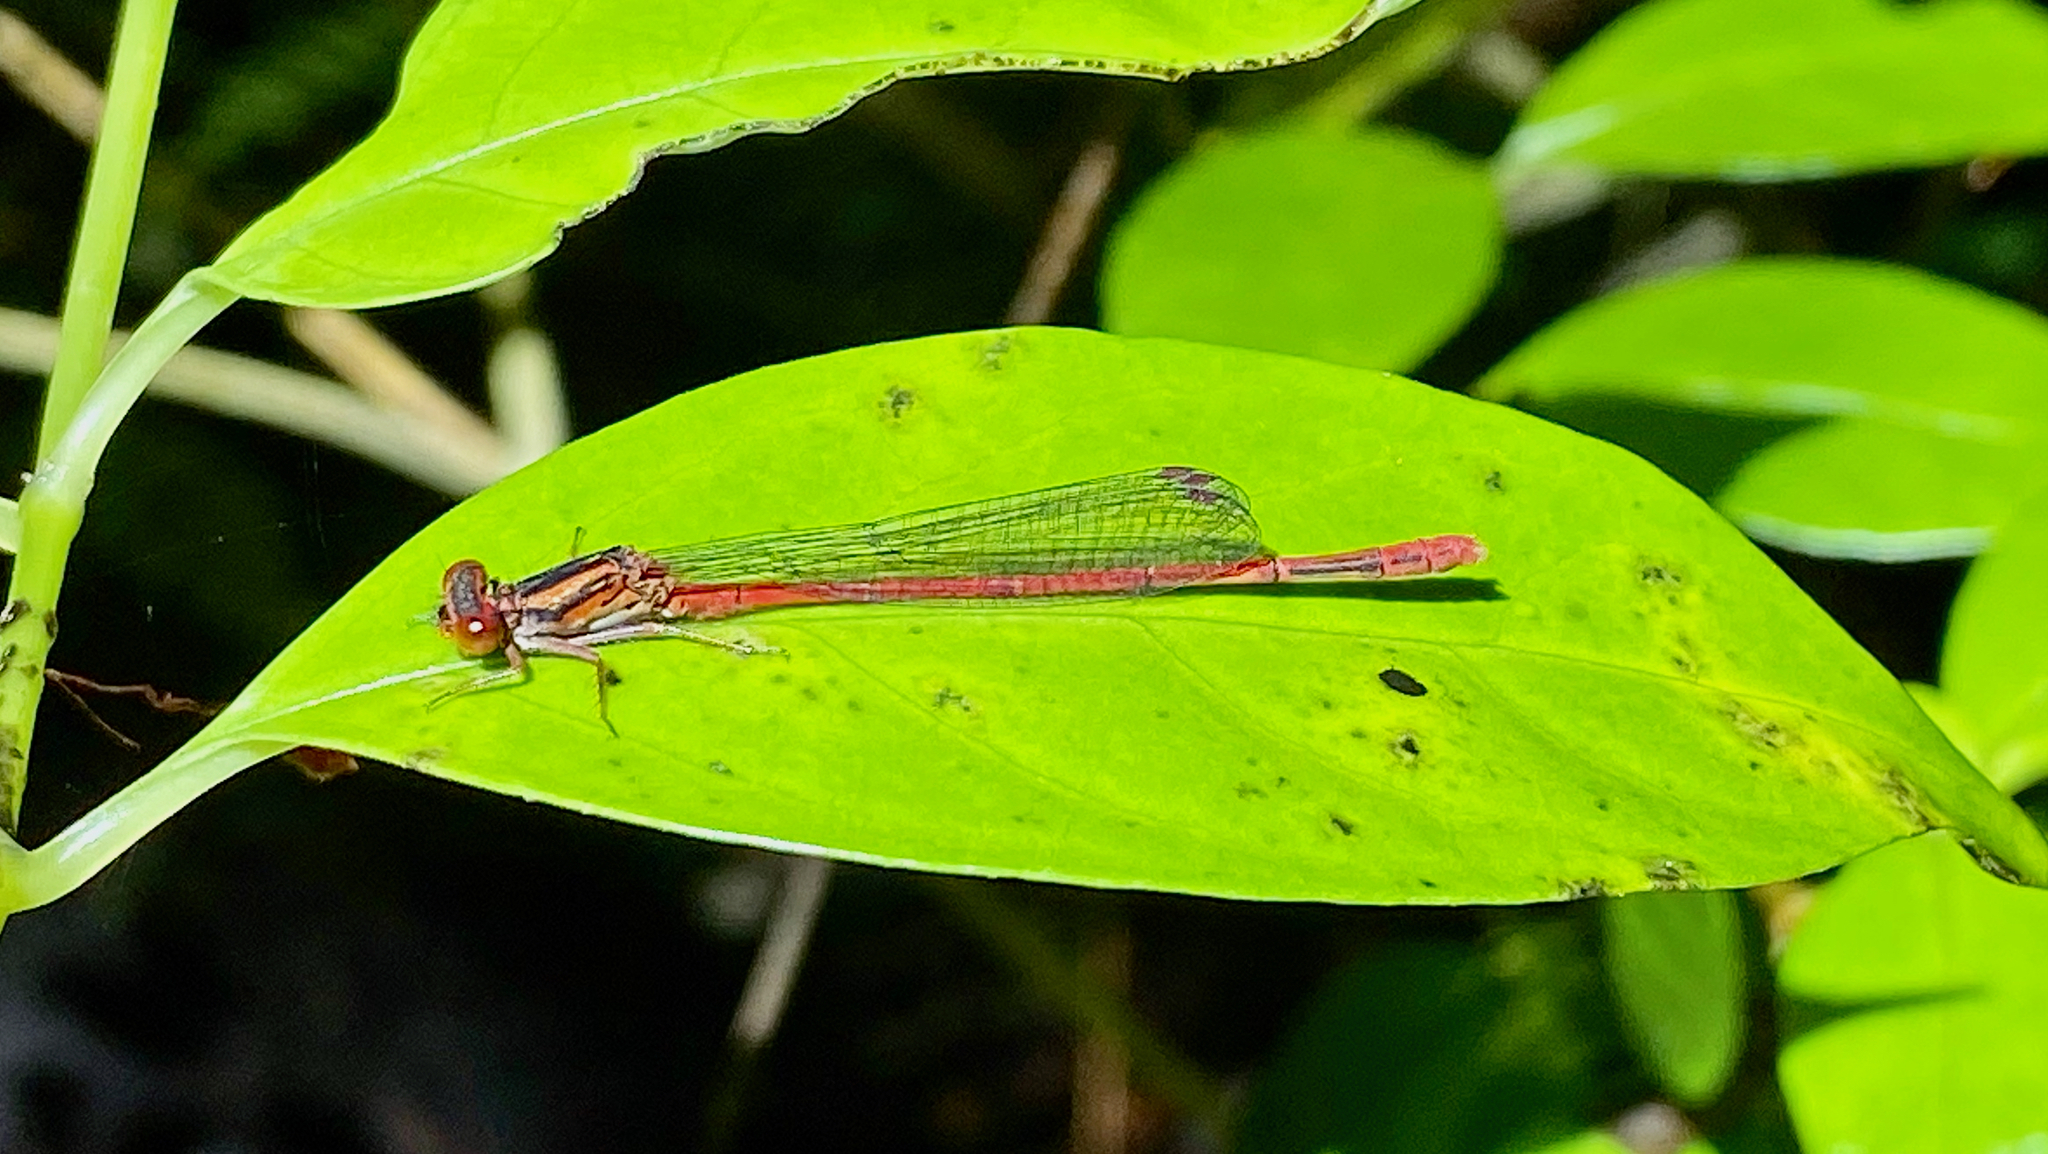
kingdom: Animalia
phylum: Arthropoda
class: Insecta
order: Odonata
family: Coenagrionidae
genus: Xanthocnemis
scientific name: Xanthocnemis zealandica
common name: Common redcoat damselfly
